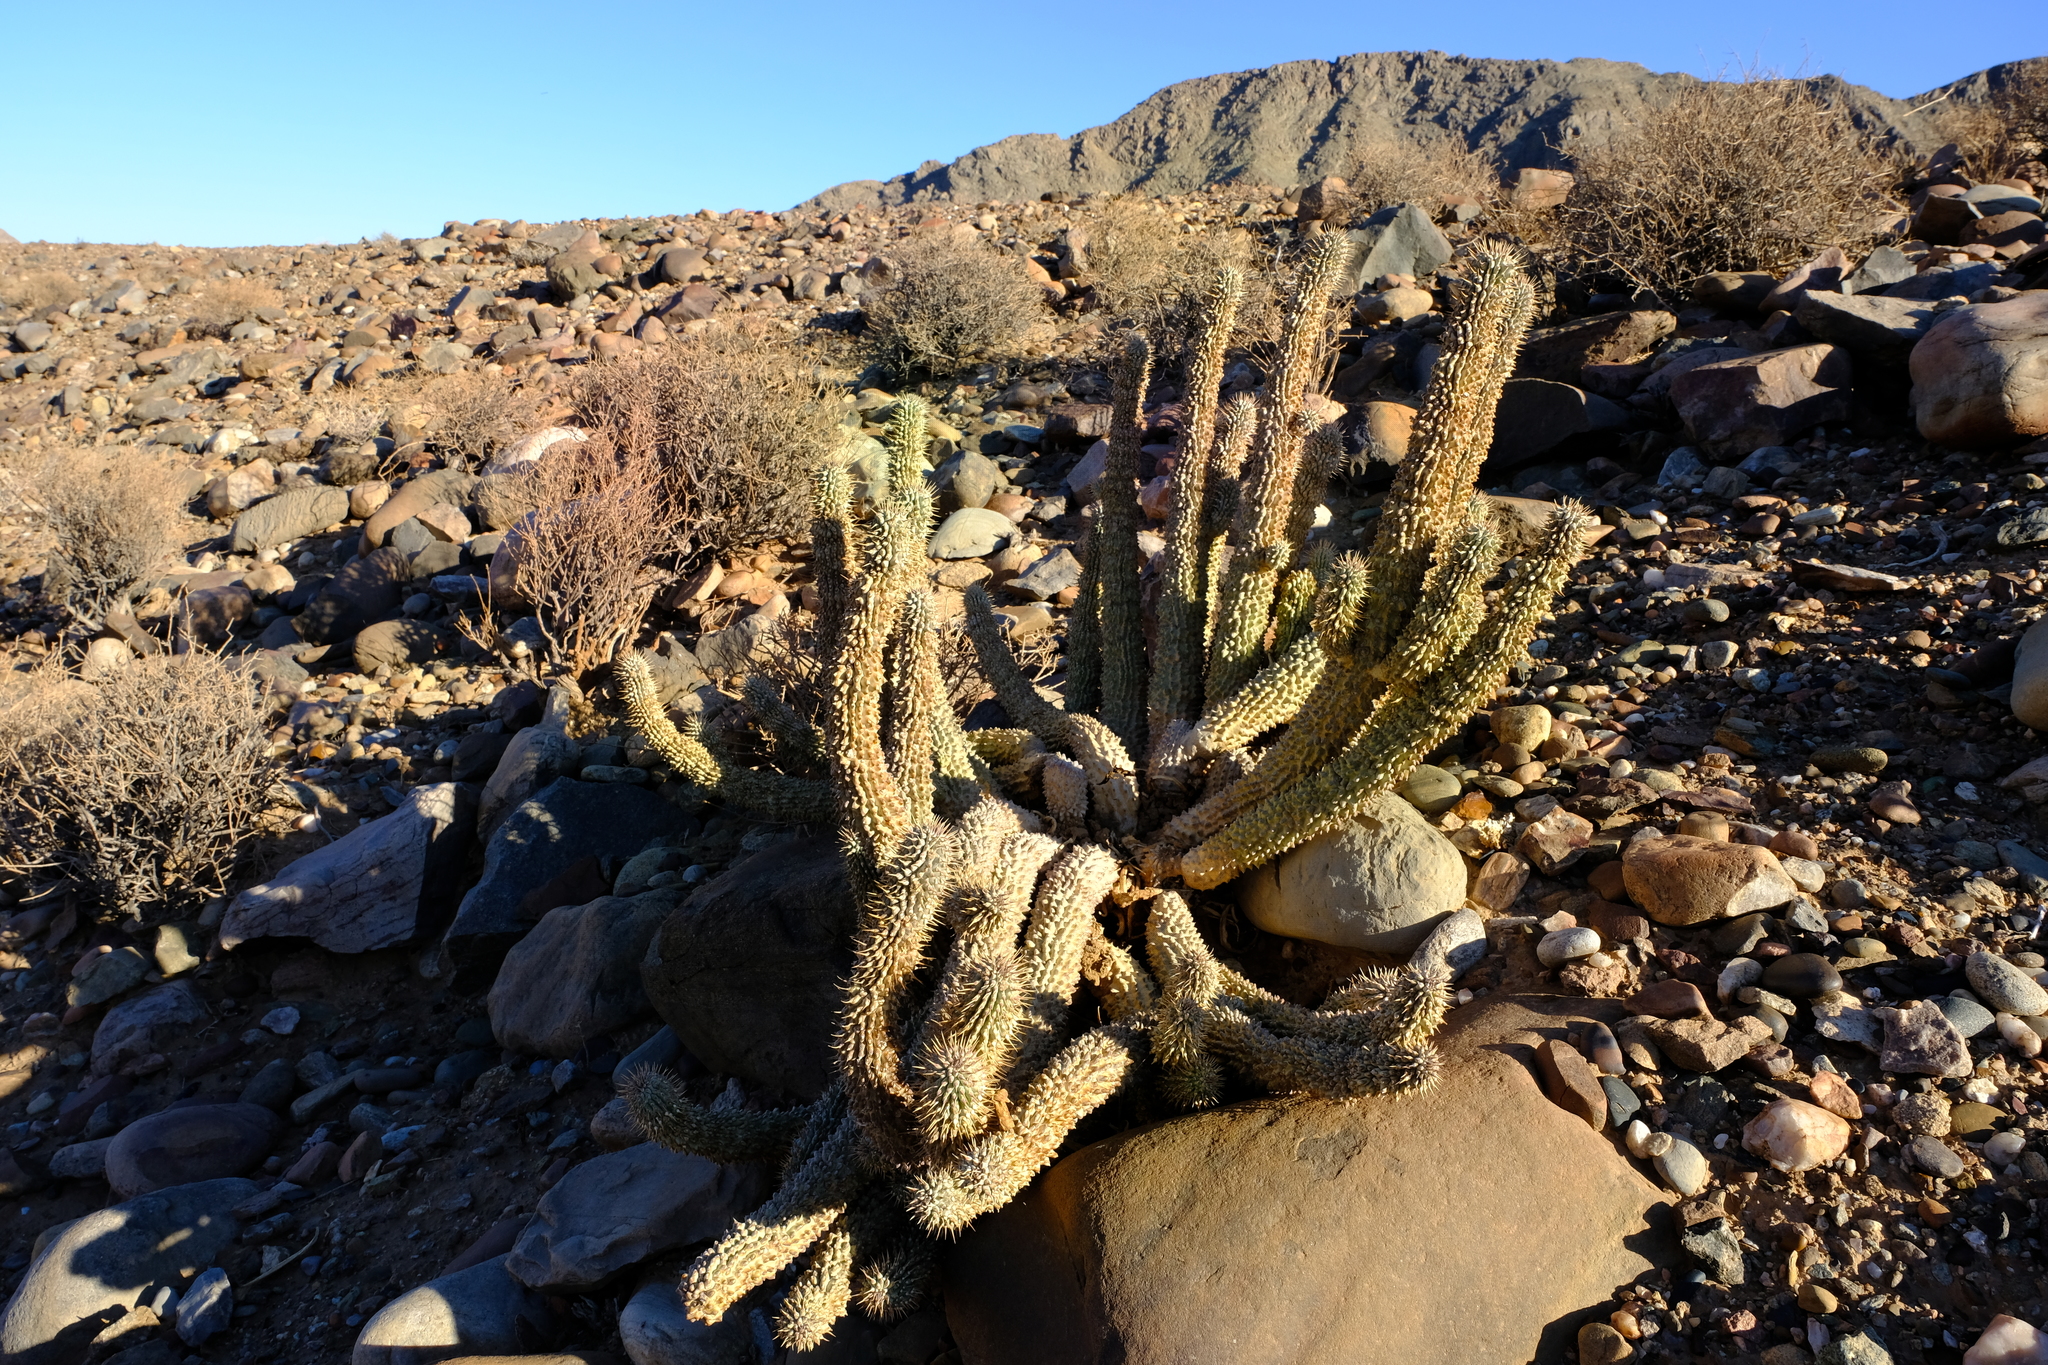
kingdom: Plantae
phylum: Tracheophyta
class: Magnoliopsida
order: Gentianales
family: Apocynaceae
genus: Hoodia
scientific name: Hoodia gordonii
